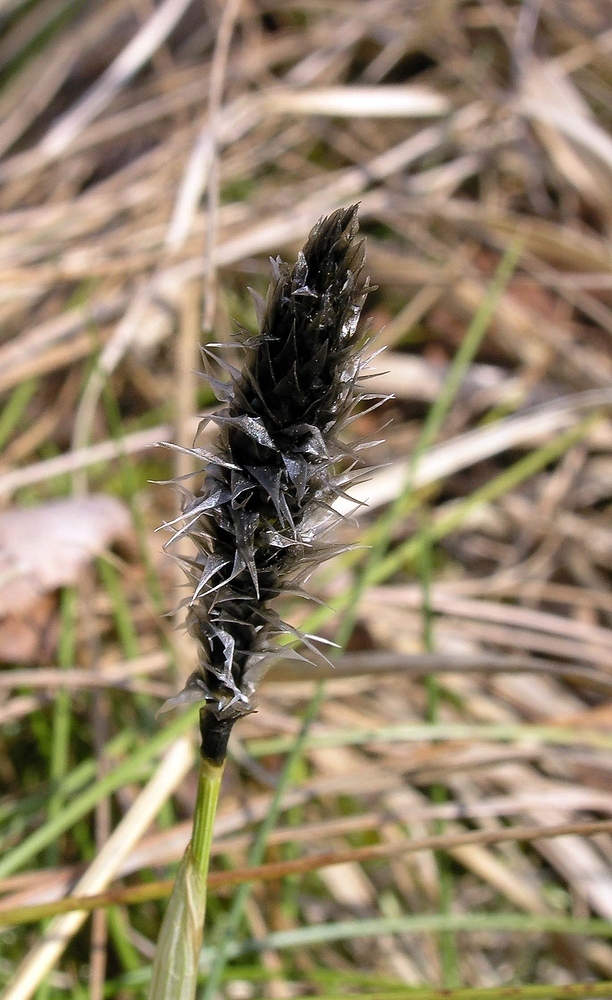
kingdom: Plantae
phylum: Tracheophyta
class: Liliopsida
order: Poales
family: Cyperaceae
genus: Eriophorum
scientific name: Eriophorum vaginatum
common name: Hare's-tail cottongrass
